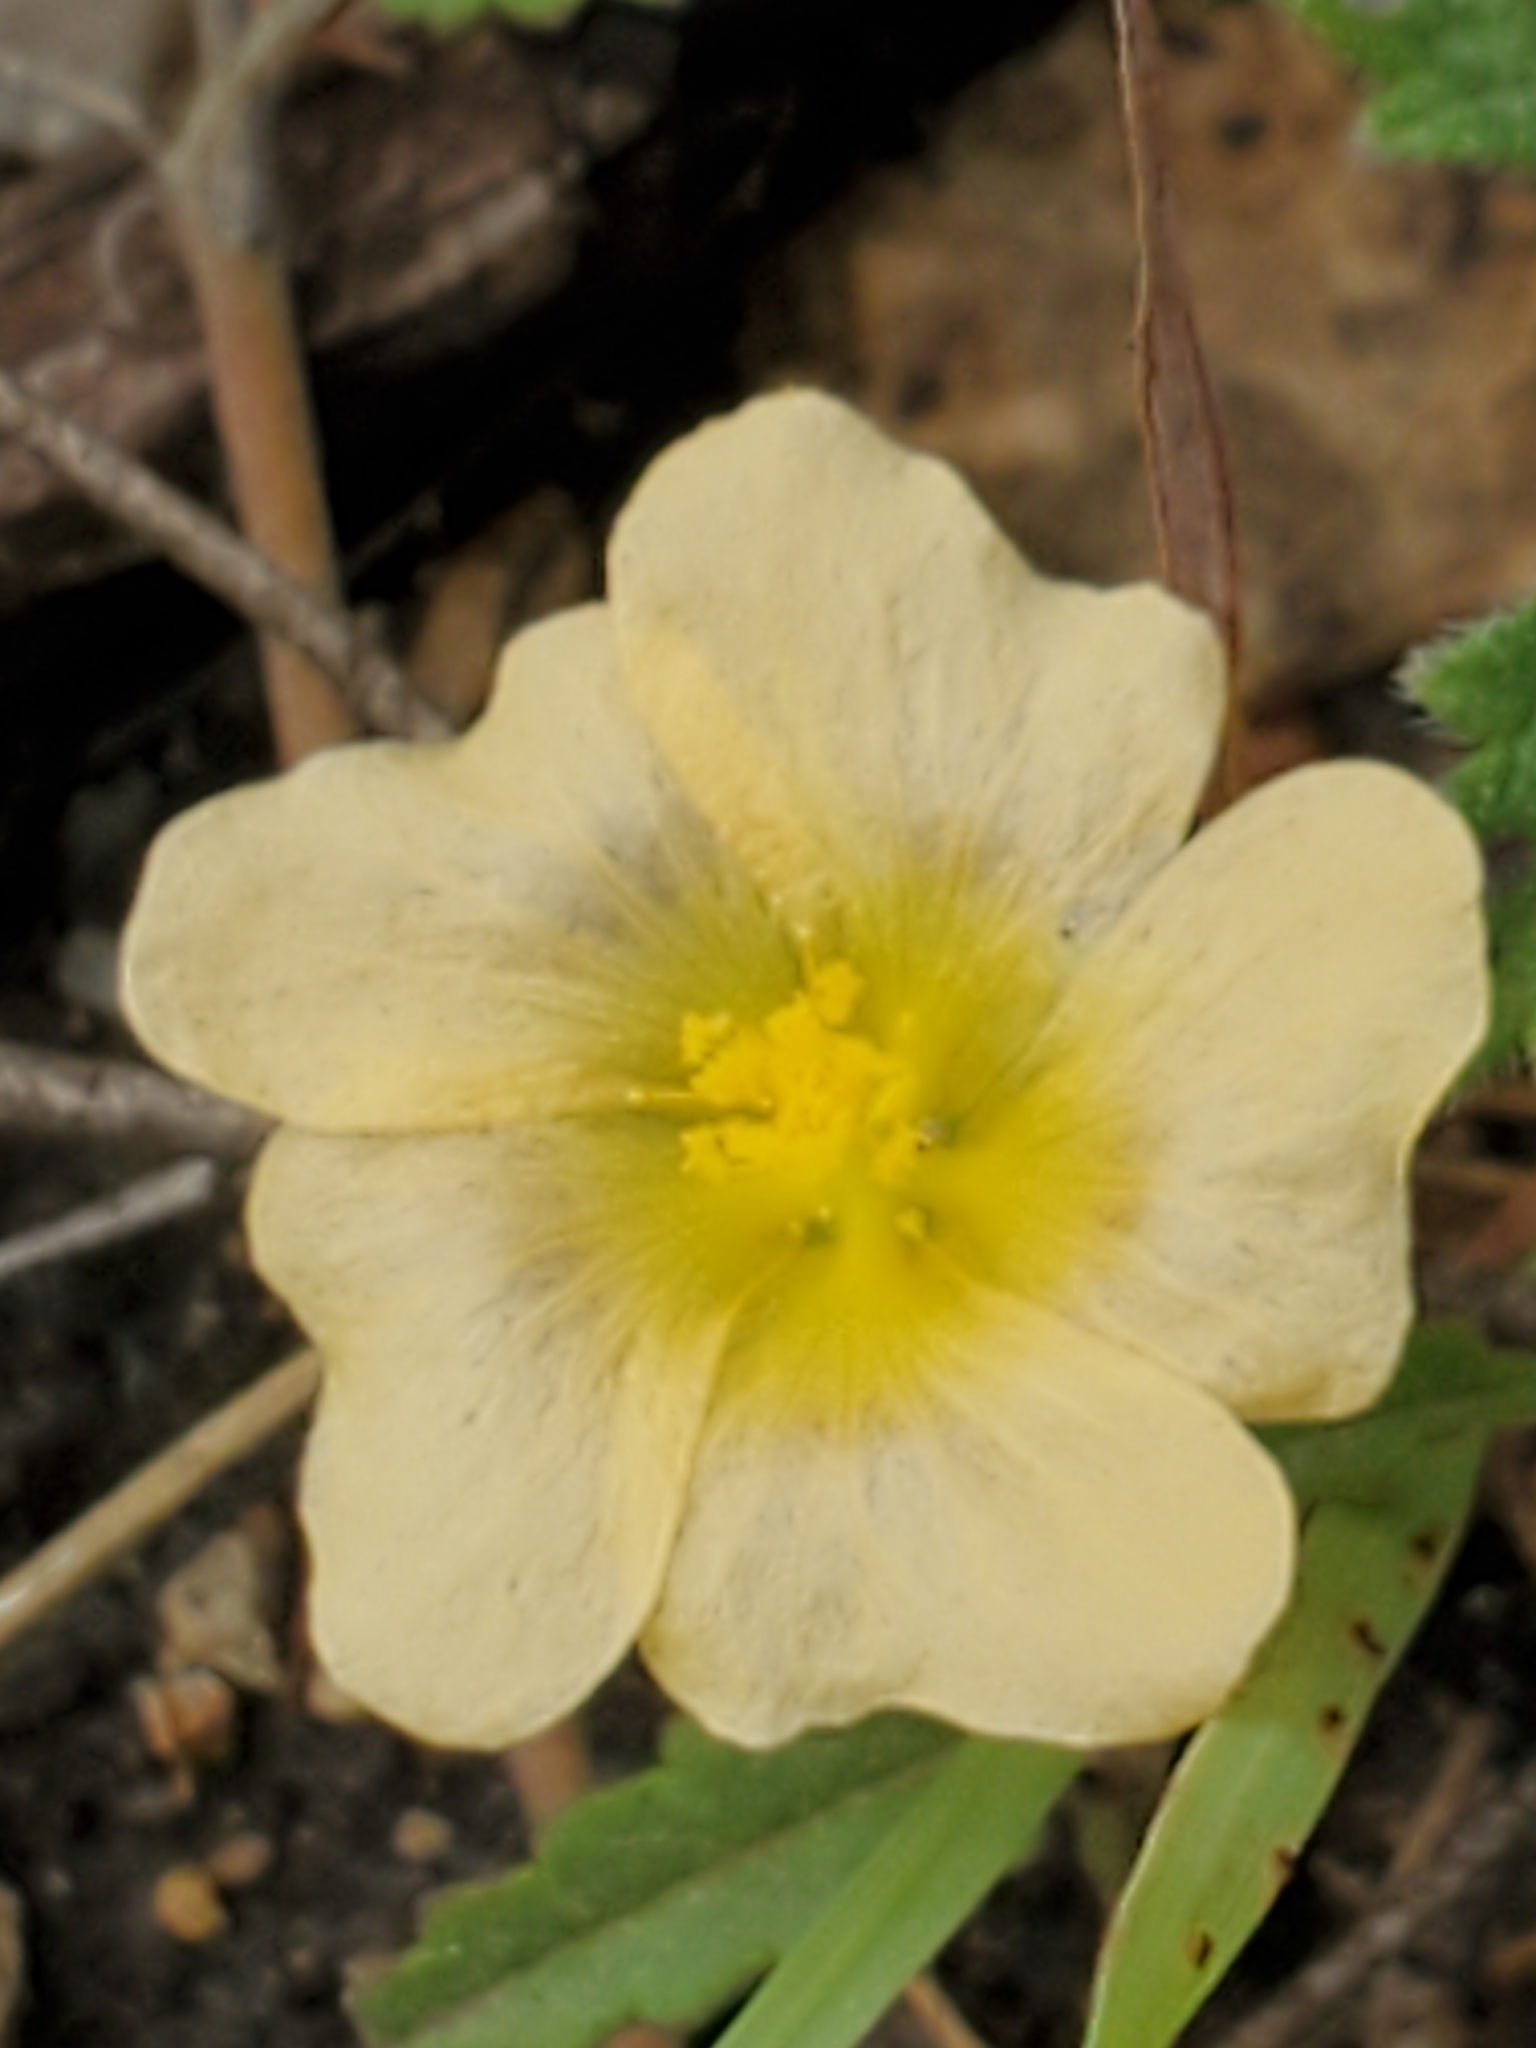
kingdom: Plantae
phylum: Tracheophyta
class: Magnoliopsida
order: Malvales
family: Malvaceae
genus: Sida
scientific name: Sida abutilifolia
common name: Spreading fanpetals
